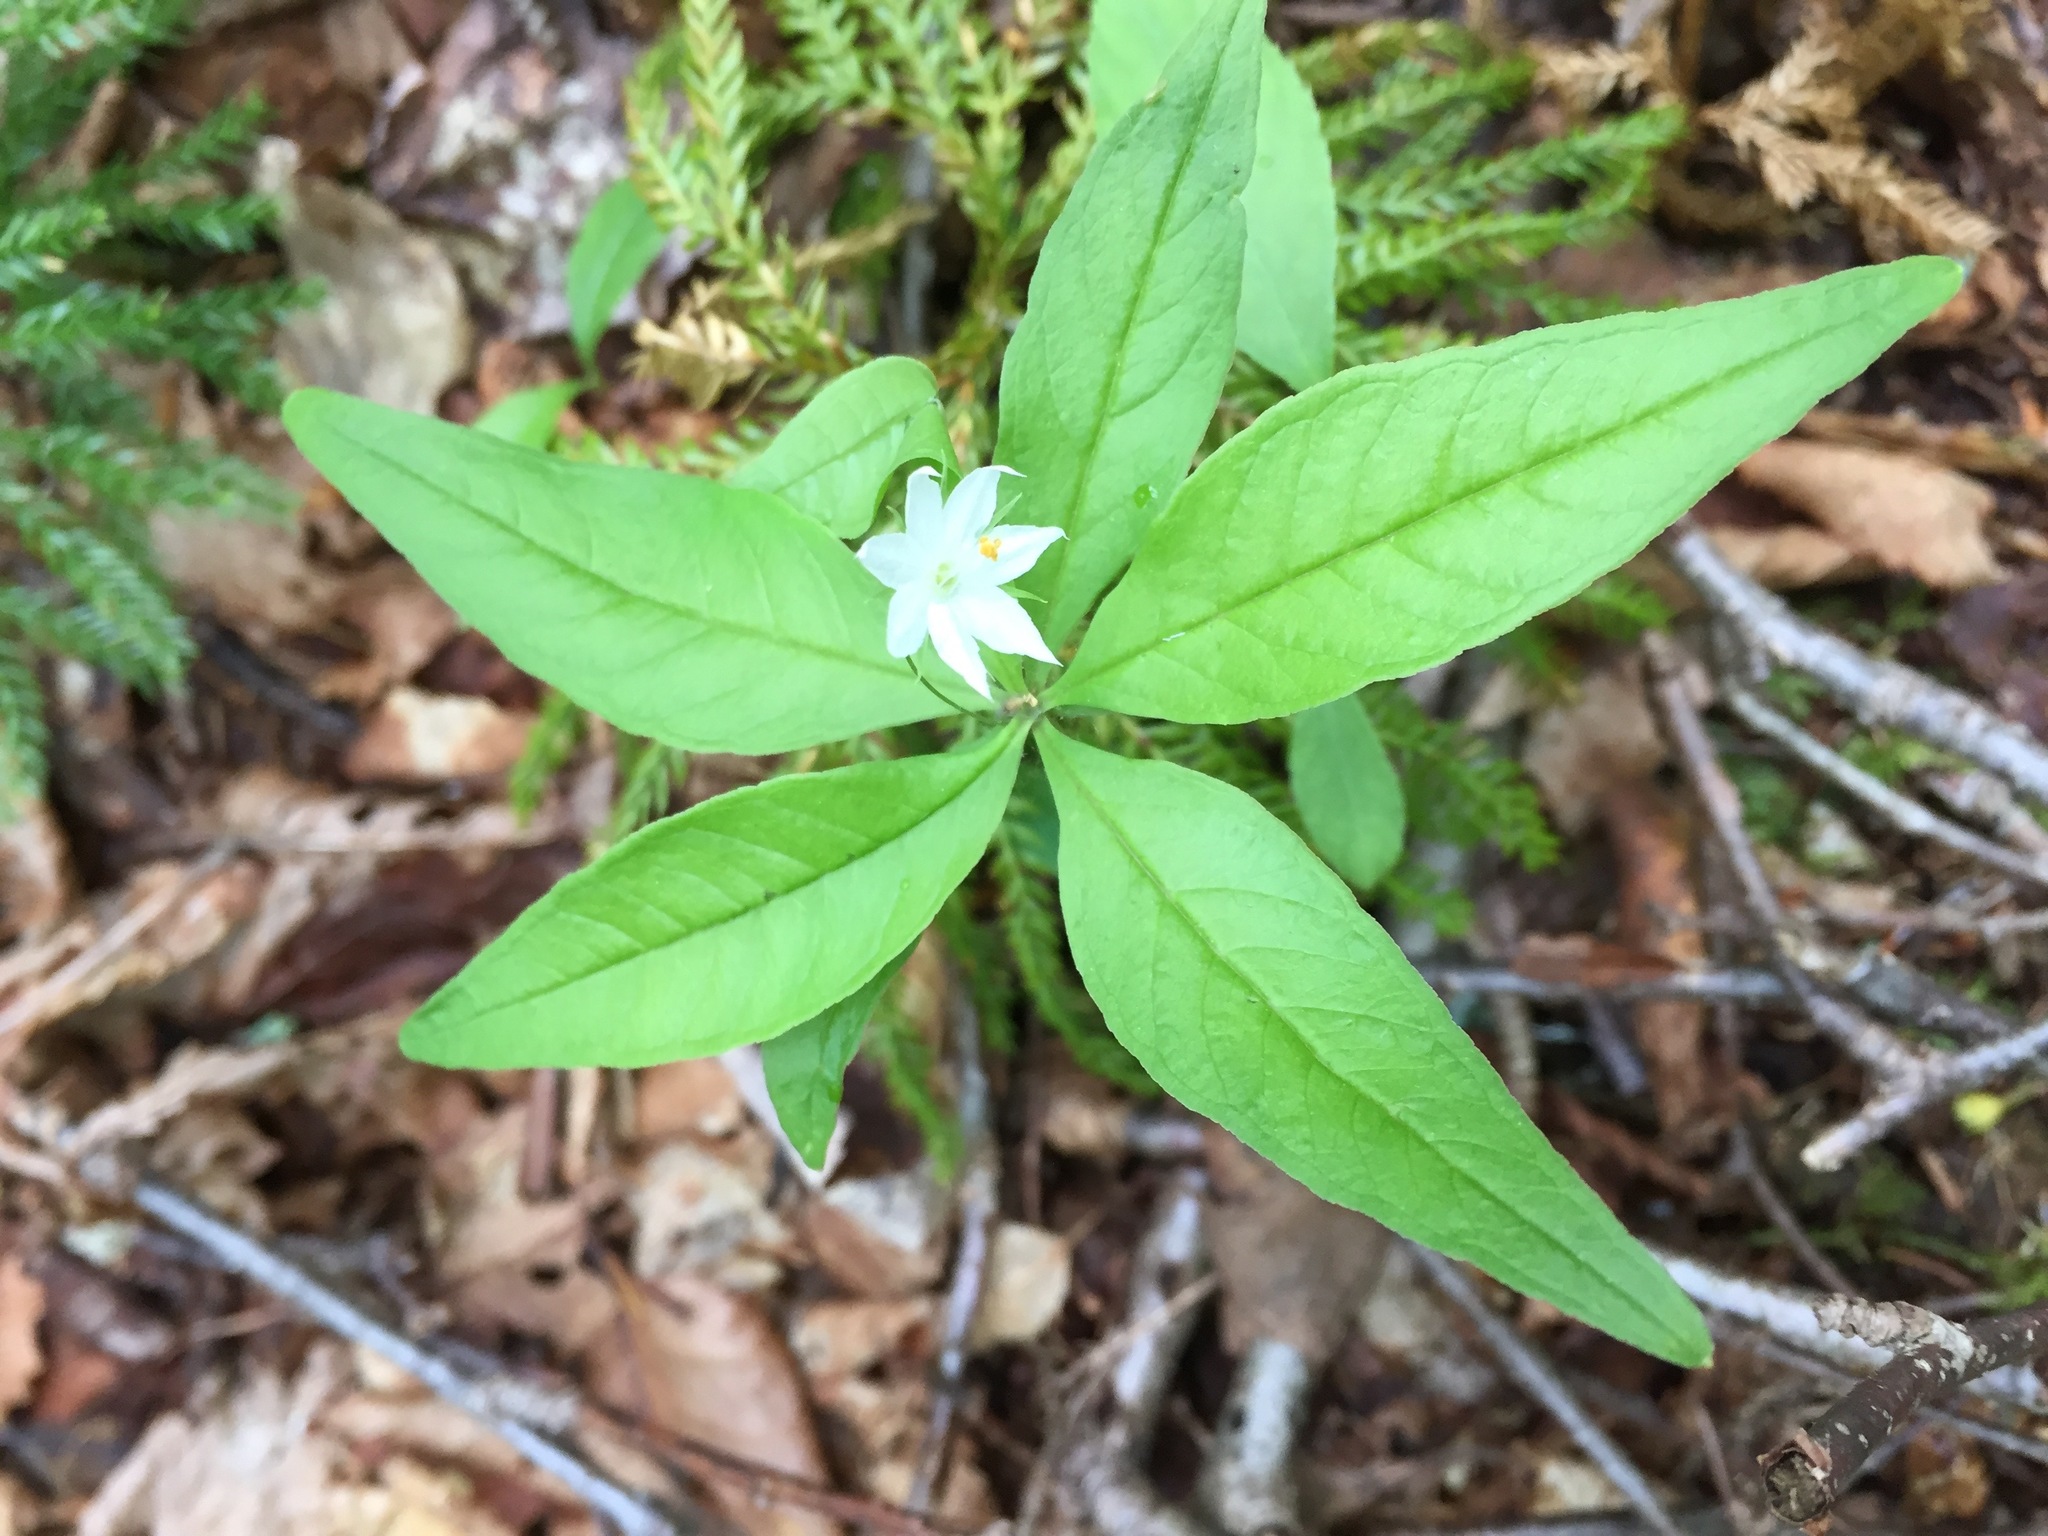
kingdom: Plantae
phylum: Tracheophyta
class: Magnoliopsida
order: Ericales
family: Primulaceae
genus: Lysimachia
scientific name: Lysimachia borealis
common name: American starflower
